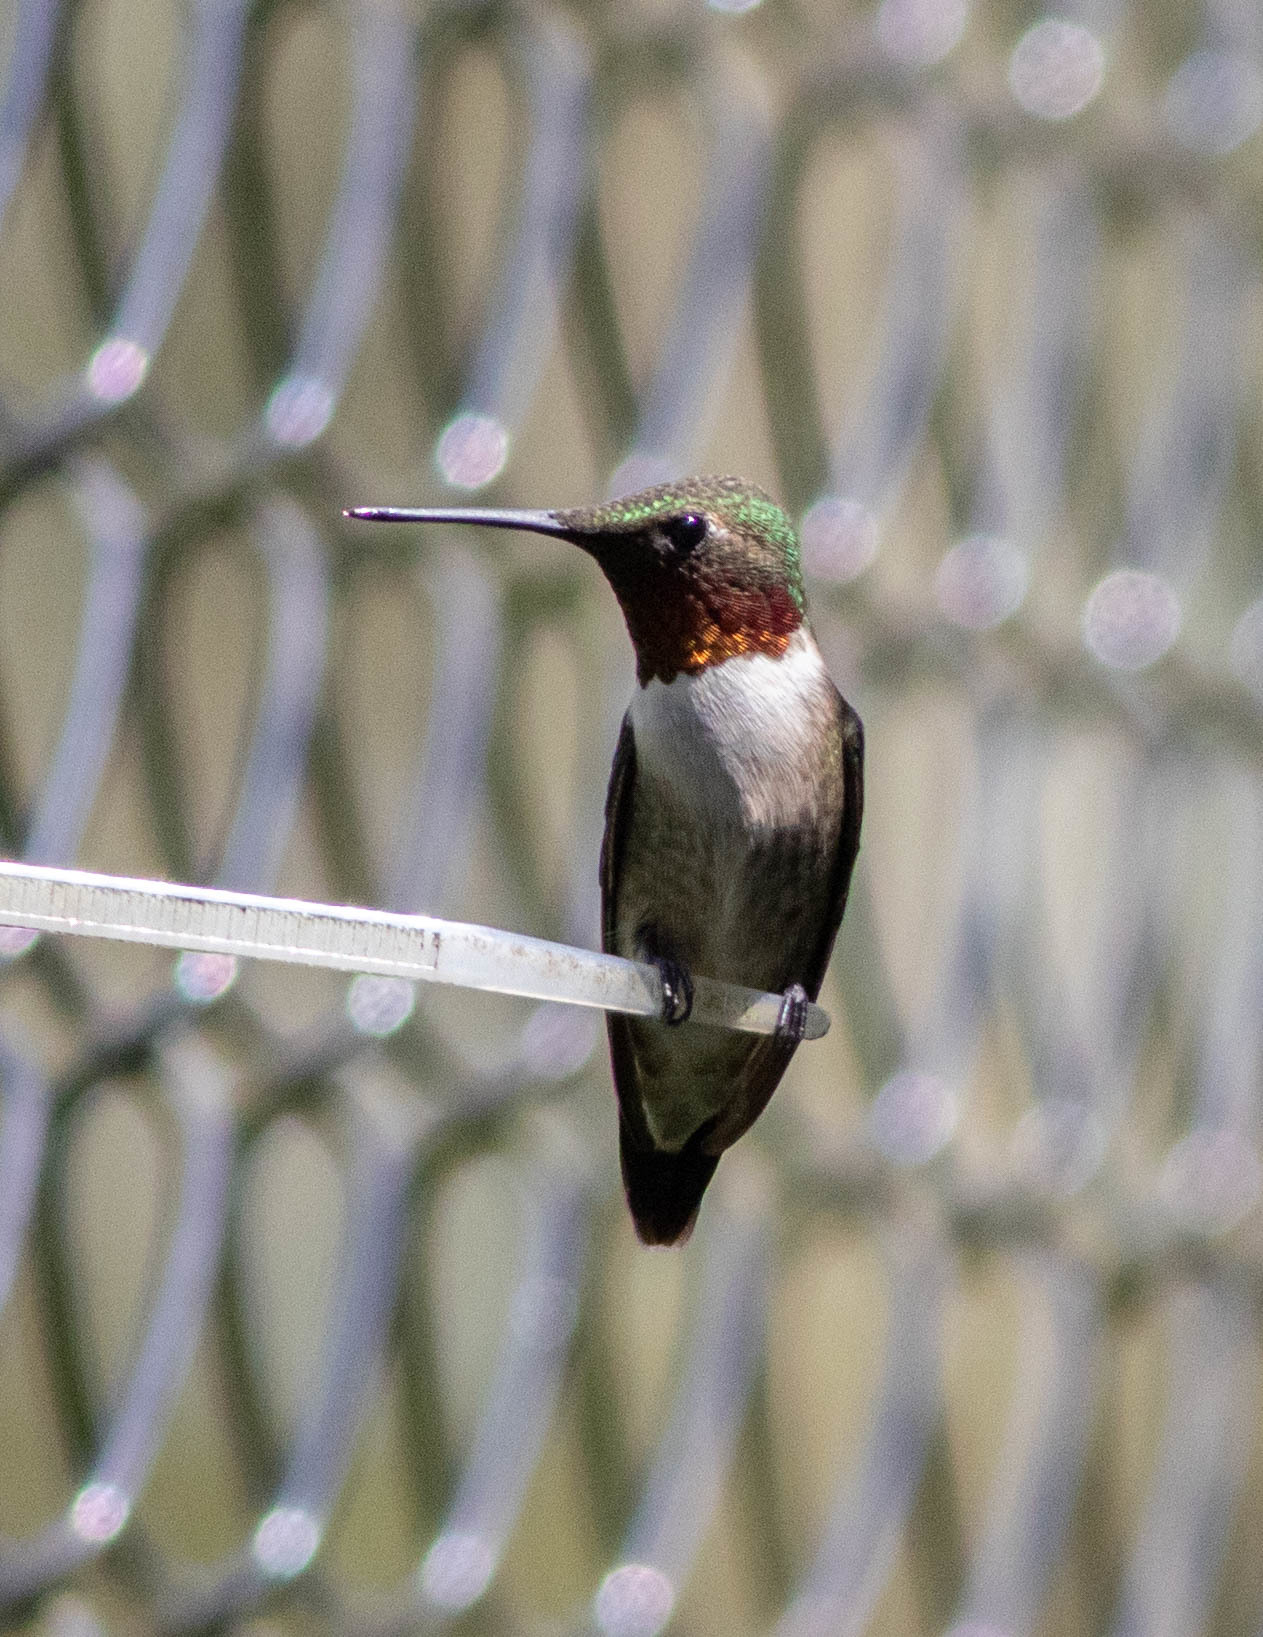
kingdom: Animalia
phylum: Chordata
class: Aves
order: Apodiformes
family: Trochilidae
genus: Archilochus
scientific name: Archilochus colubris
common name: Ruby-throated hummingbird
